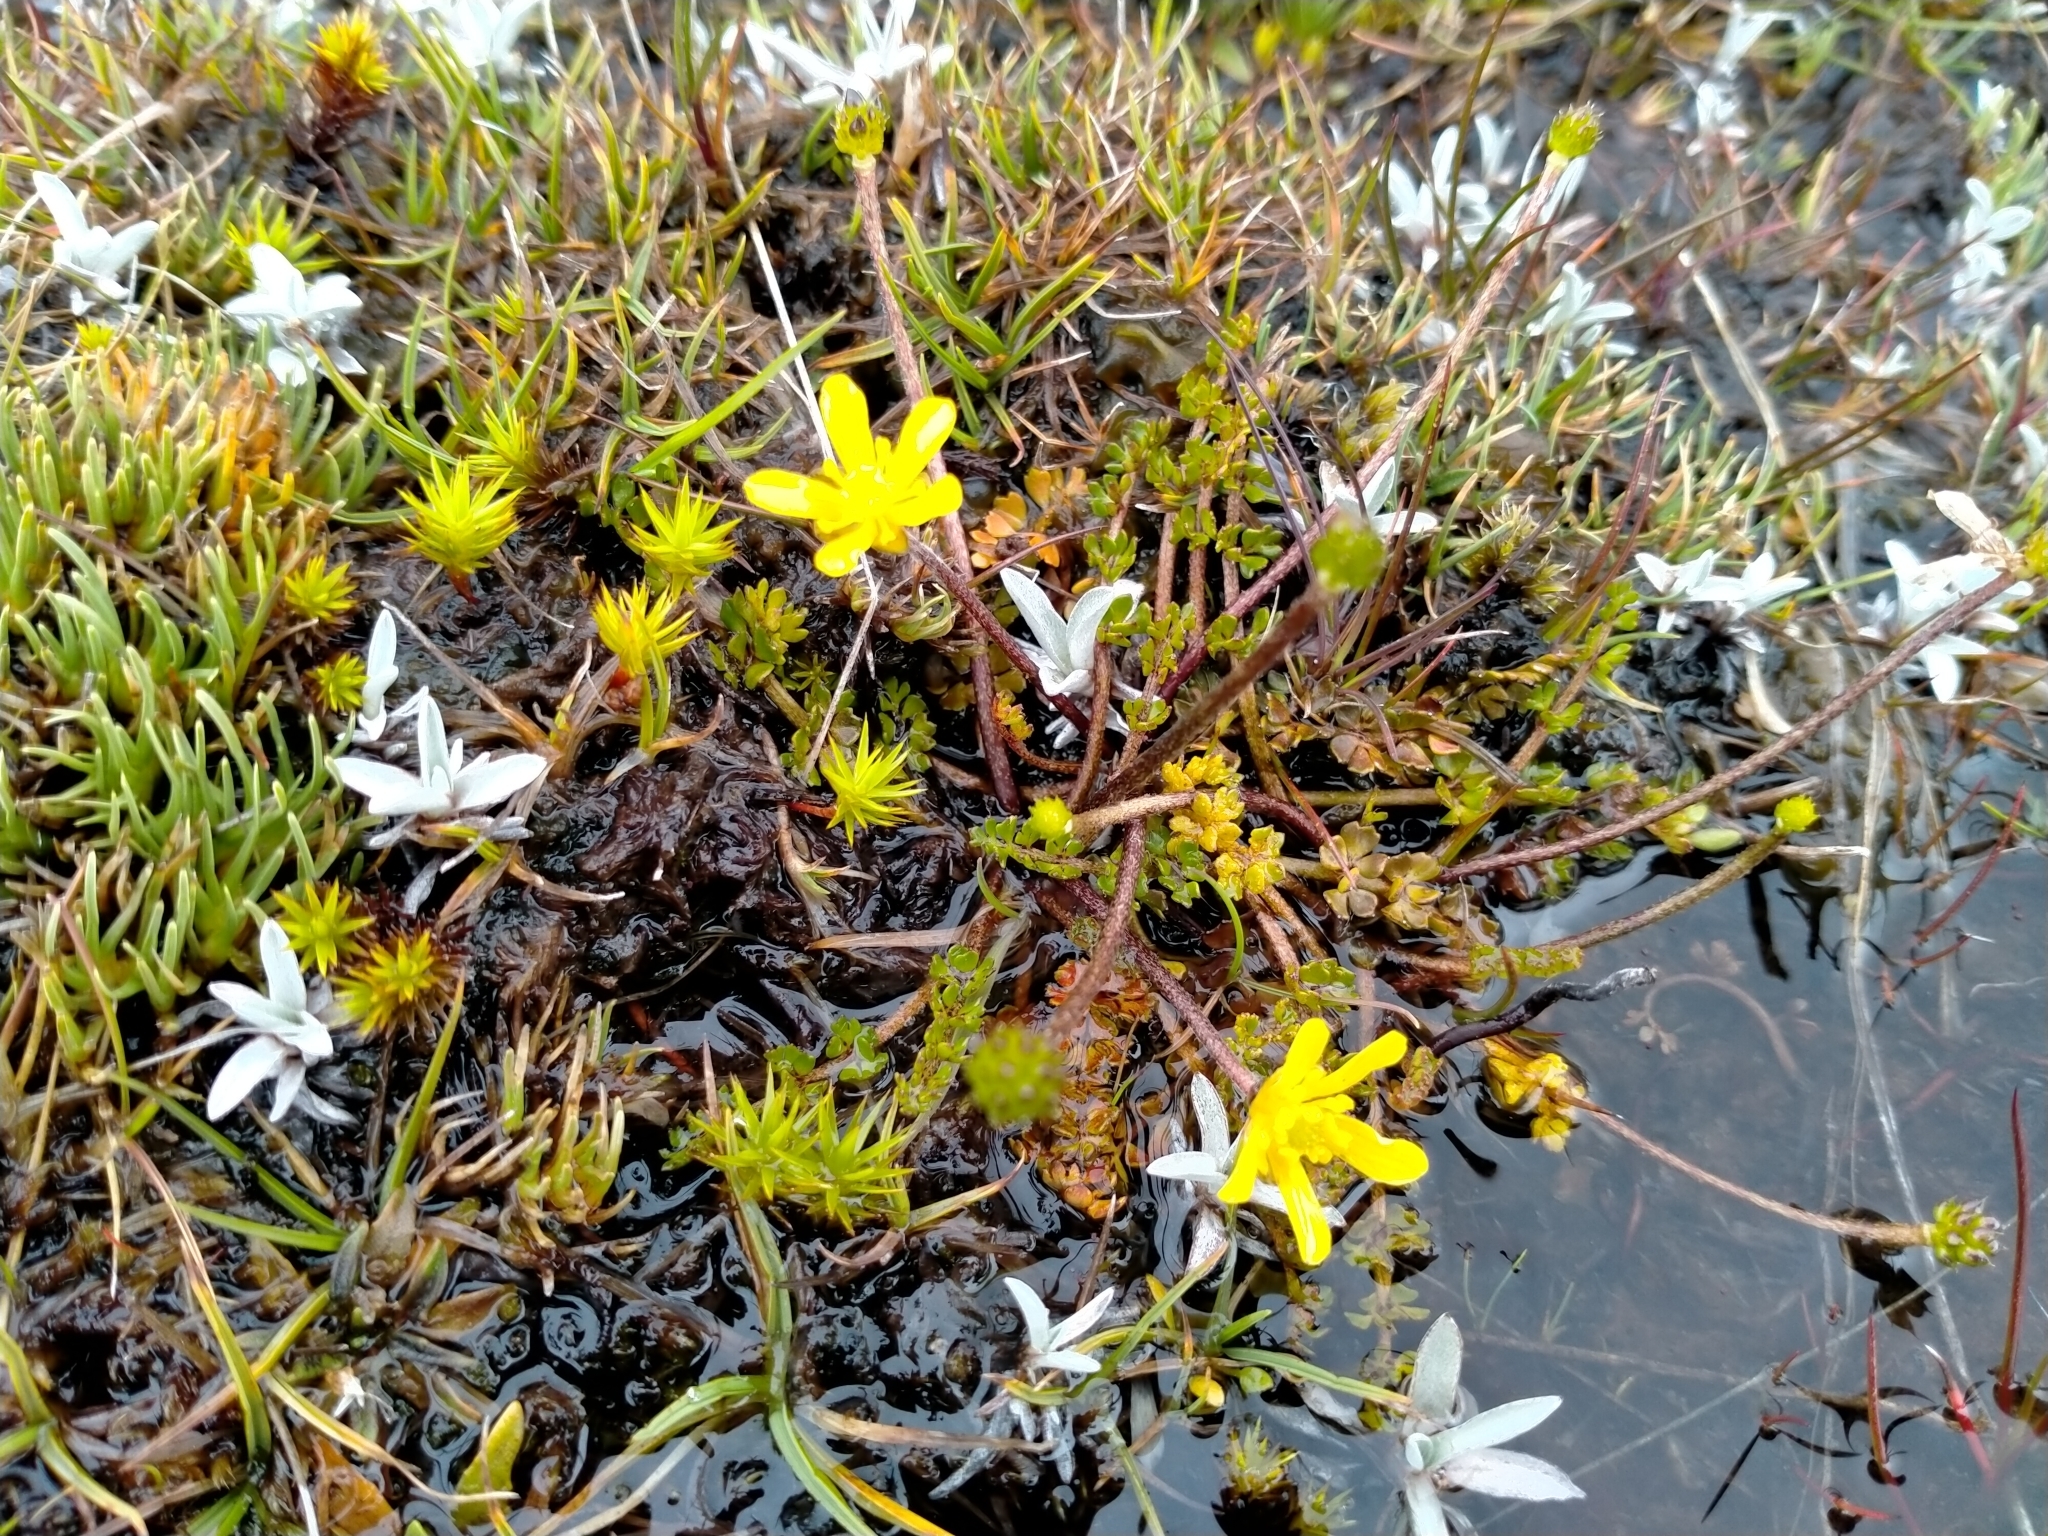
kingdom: Plantae
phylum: Tracheophyta
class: Magnoliopsida
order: Ranunculales
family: Ranunculaceae
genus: Ranunculus
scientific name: Ranunculus gracilipes
